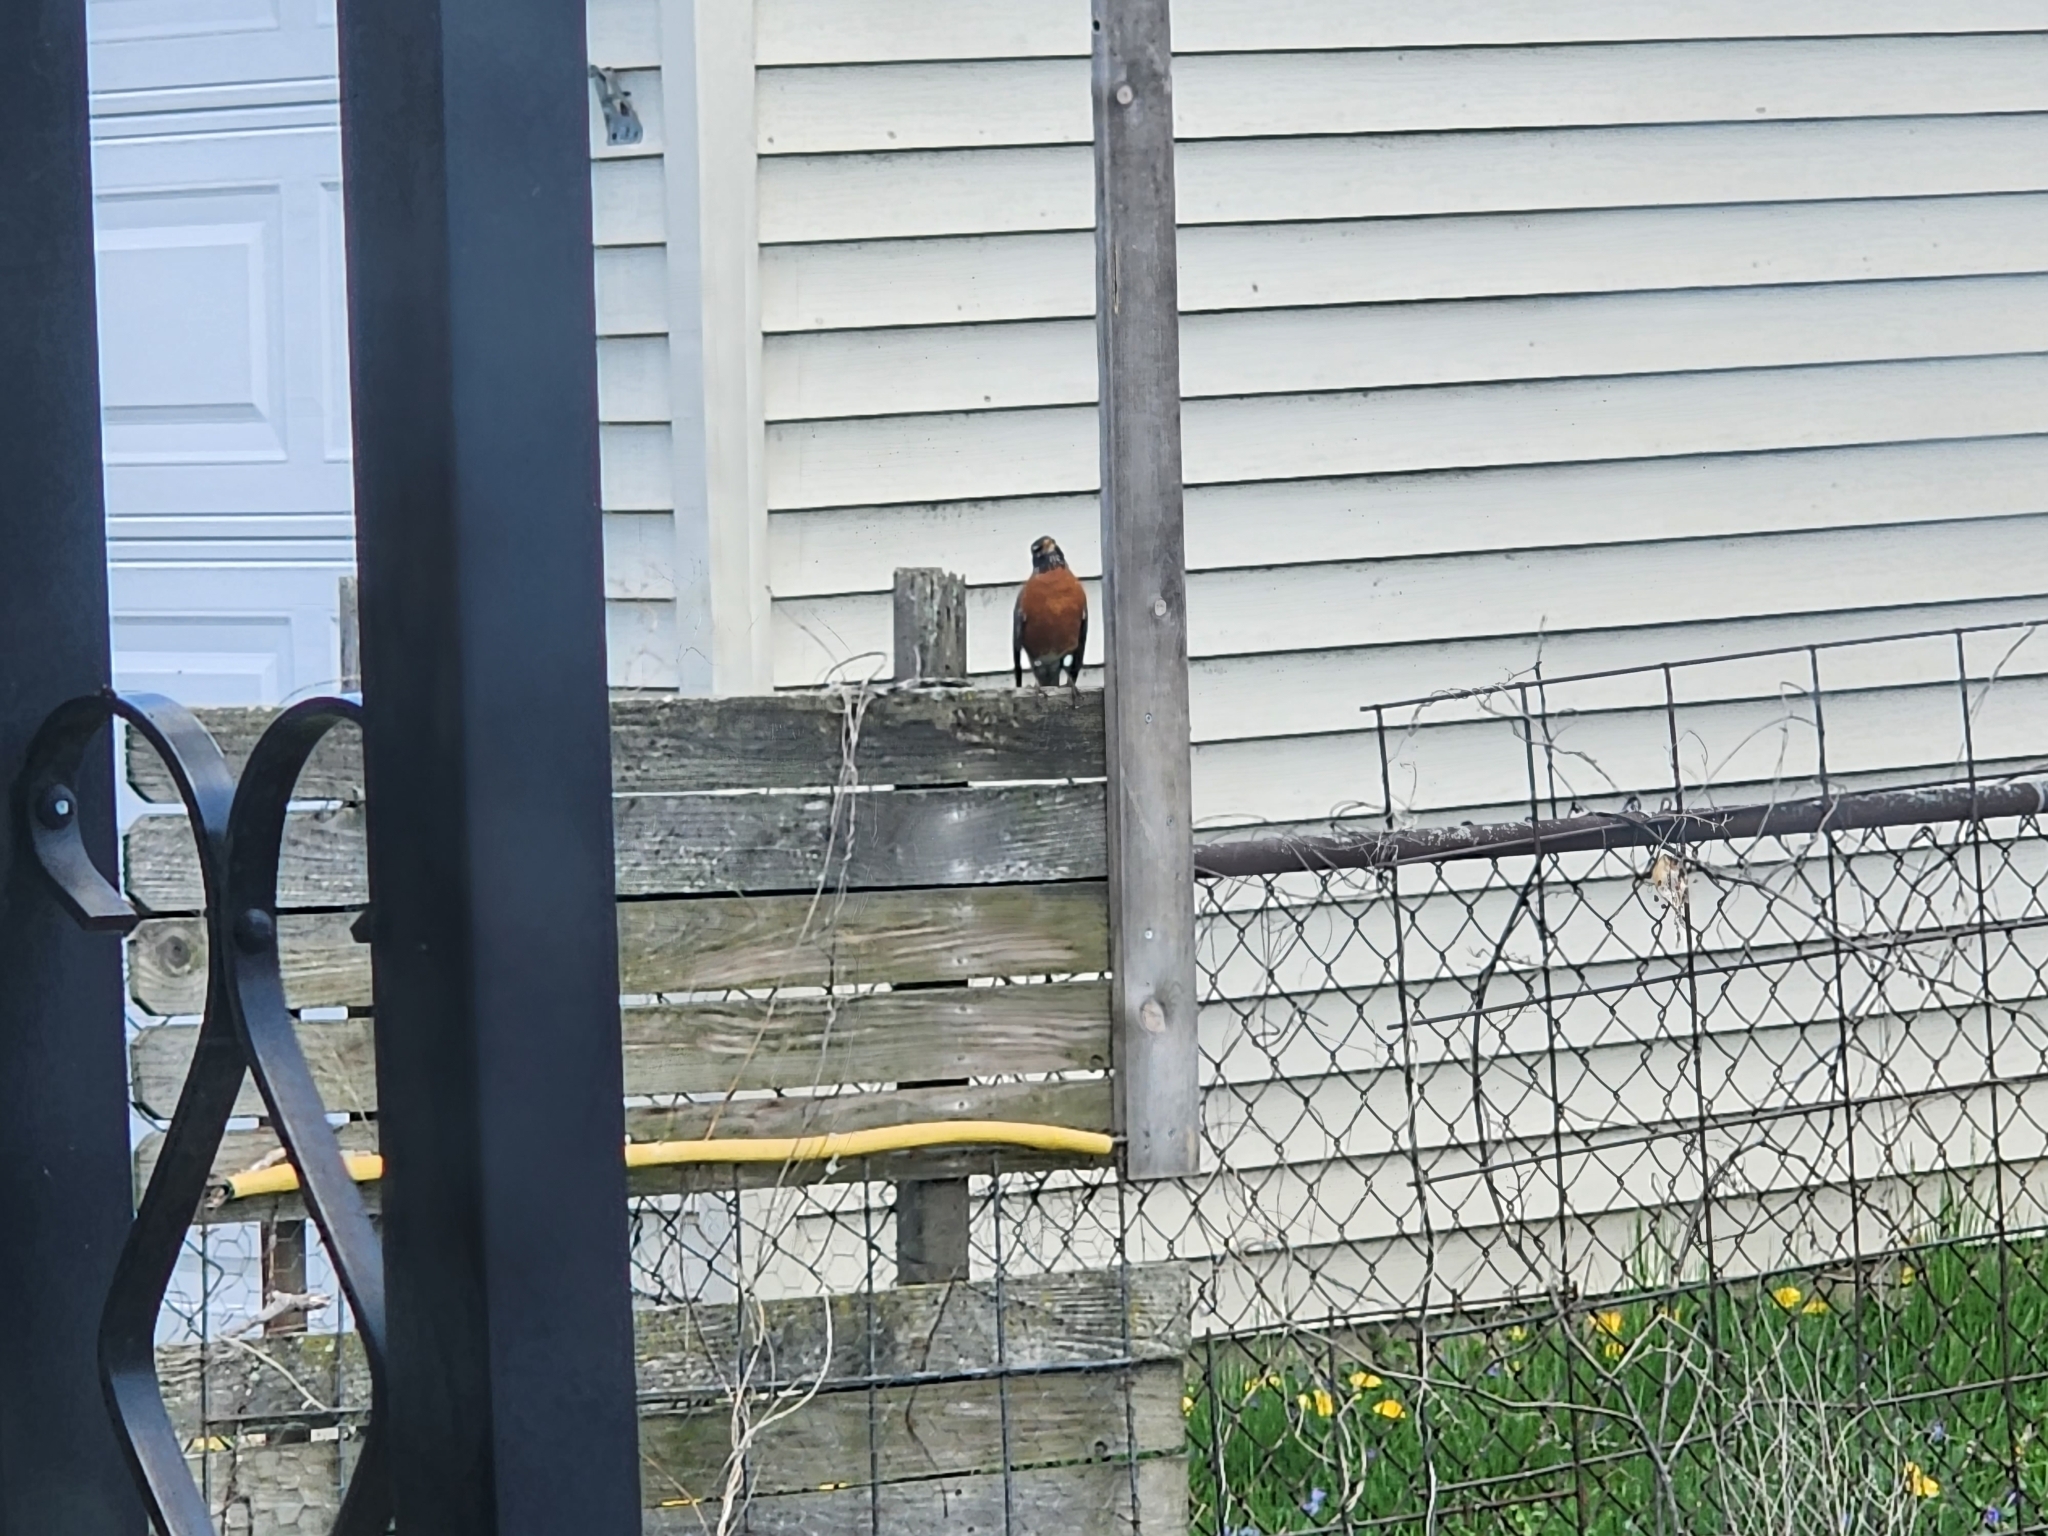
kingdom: Animalia
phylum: Chordata
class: Aves
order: Passeriformes
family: Turdidae
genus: Turdus
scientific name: Turdus migratorius
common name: American robin
